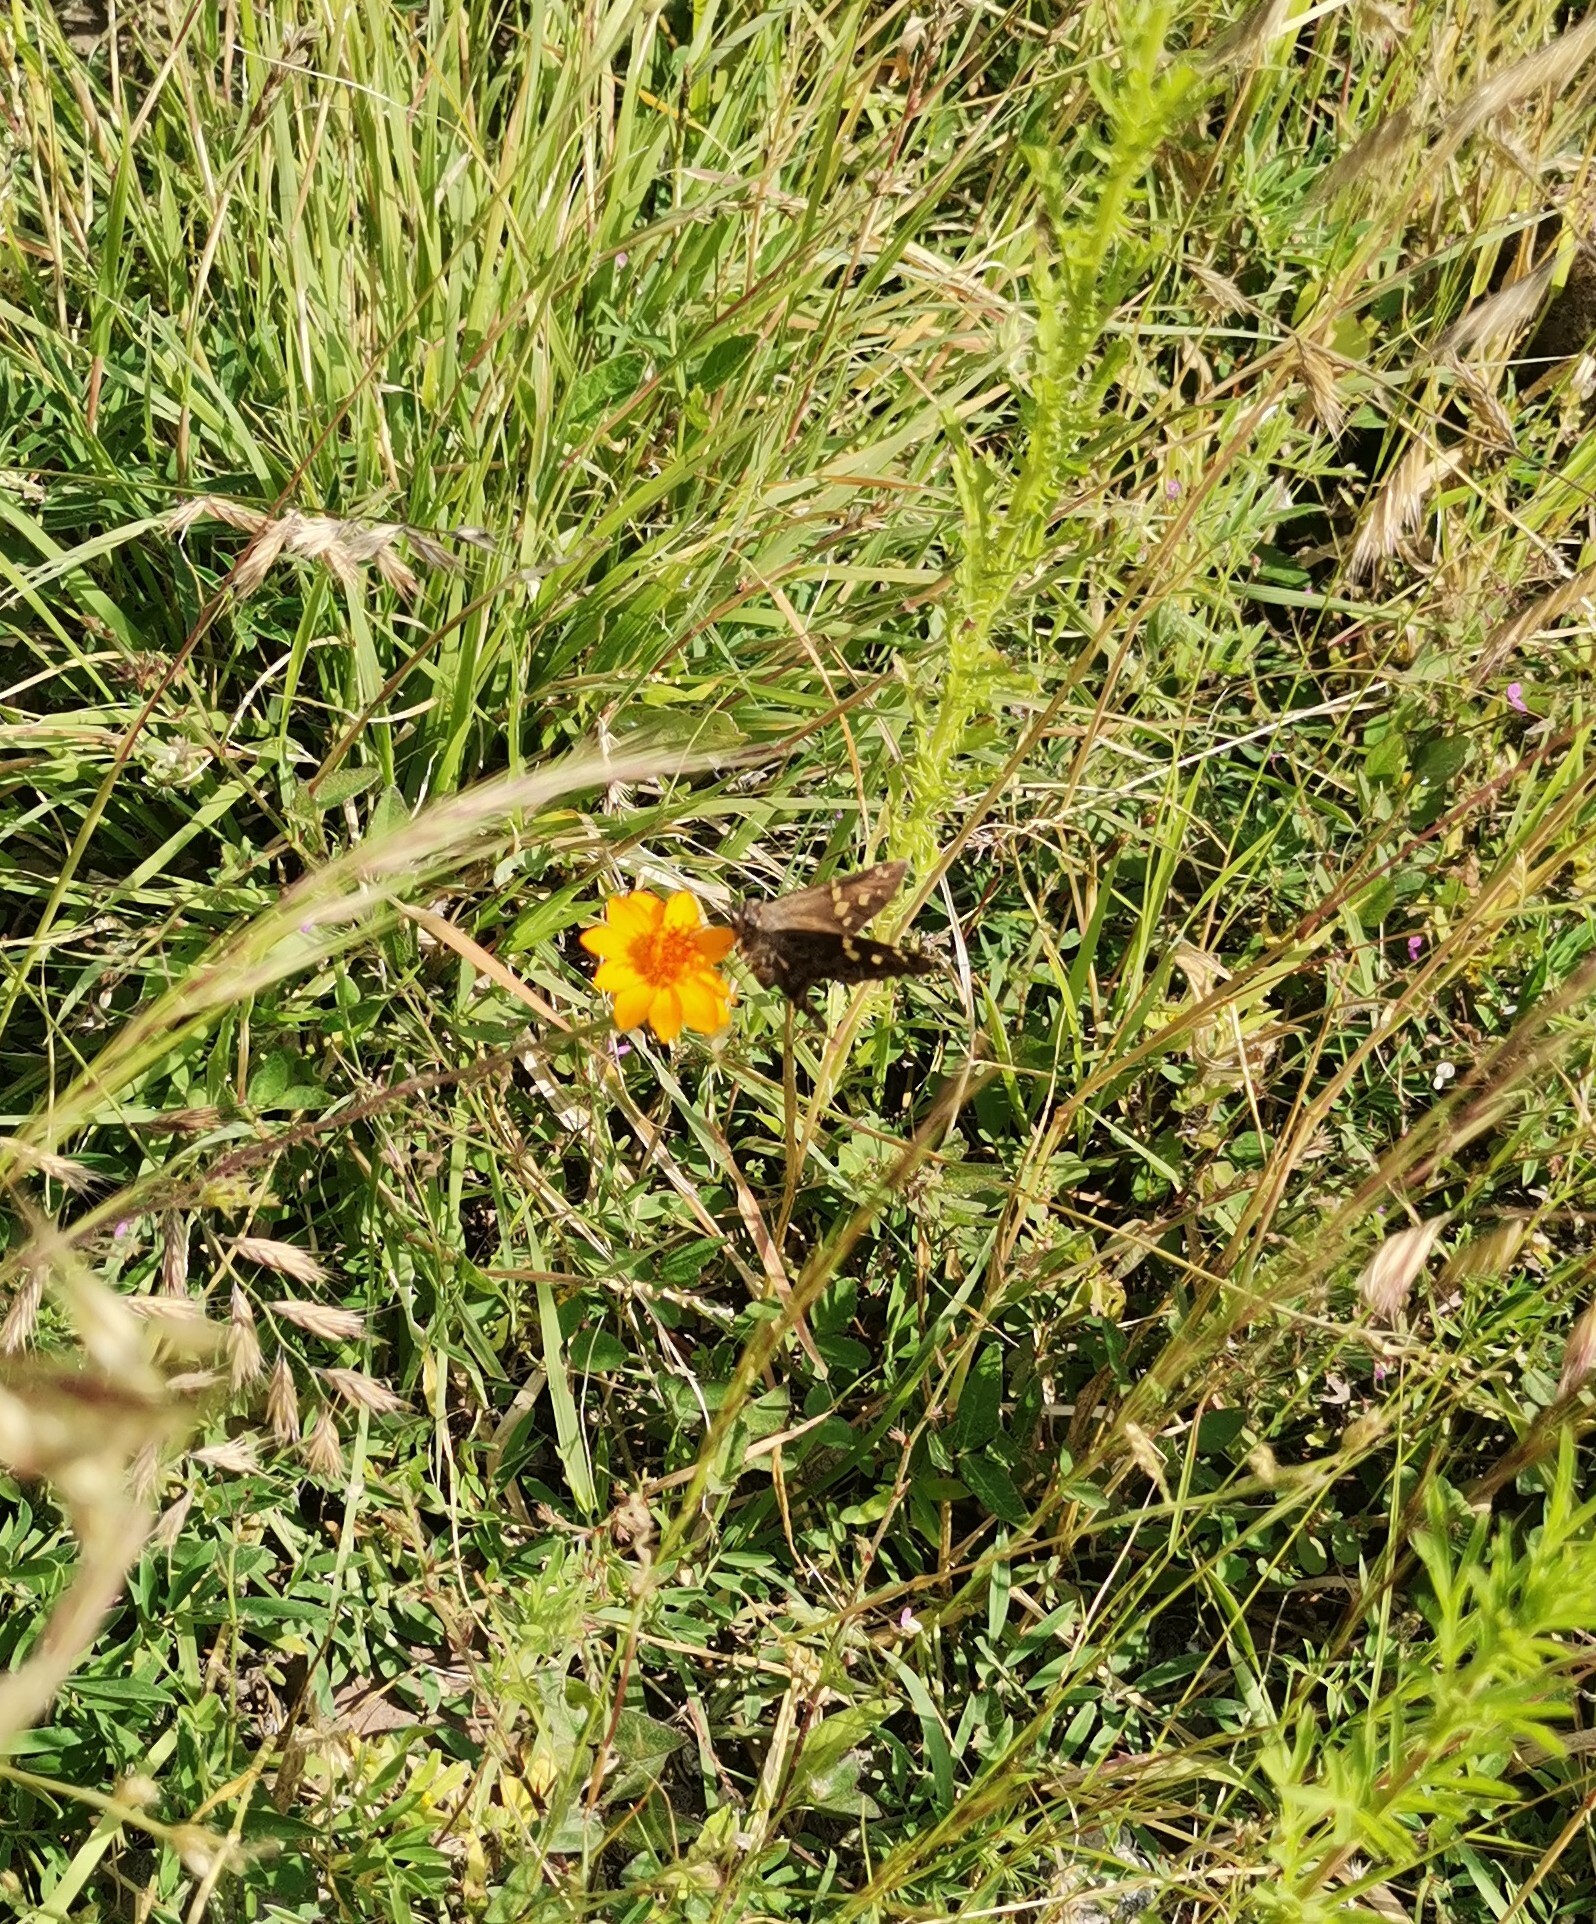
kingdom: Animalia
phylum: Arthropoda
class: Insecta
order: Lepidoptera
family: Hesperiidae
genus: Thorybes
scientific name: Thorybes
